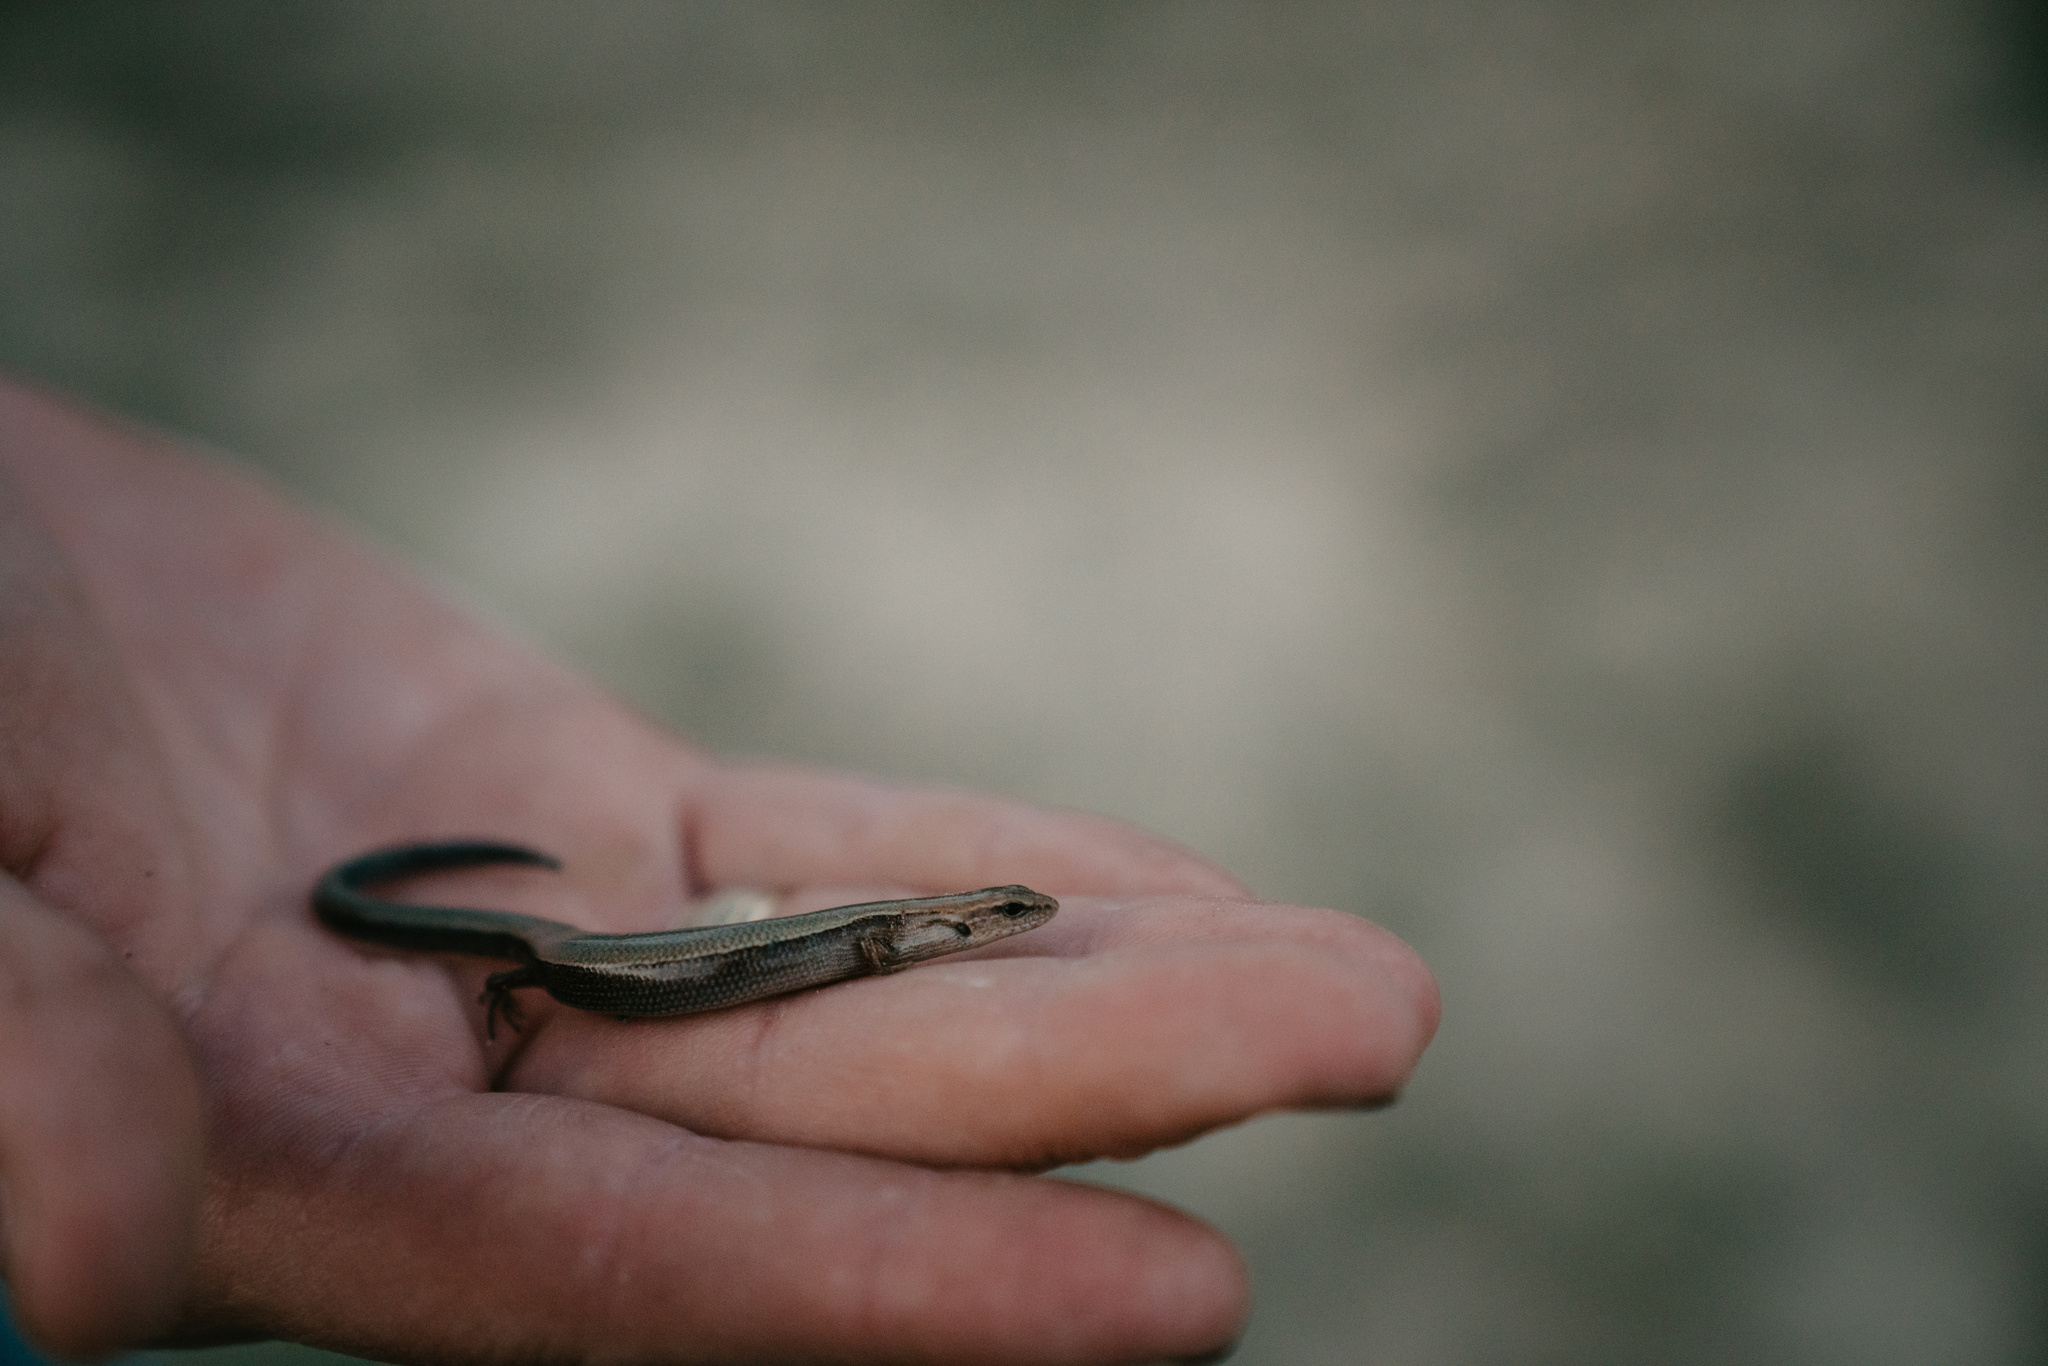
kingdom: Animalia
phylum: Chordata
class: Squamata
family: Scincidae
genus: Scincella
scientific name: Scincella lateralis
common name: Ground skink
